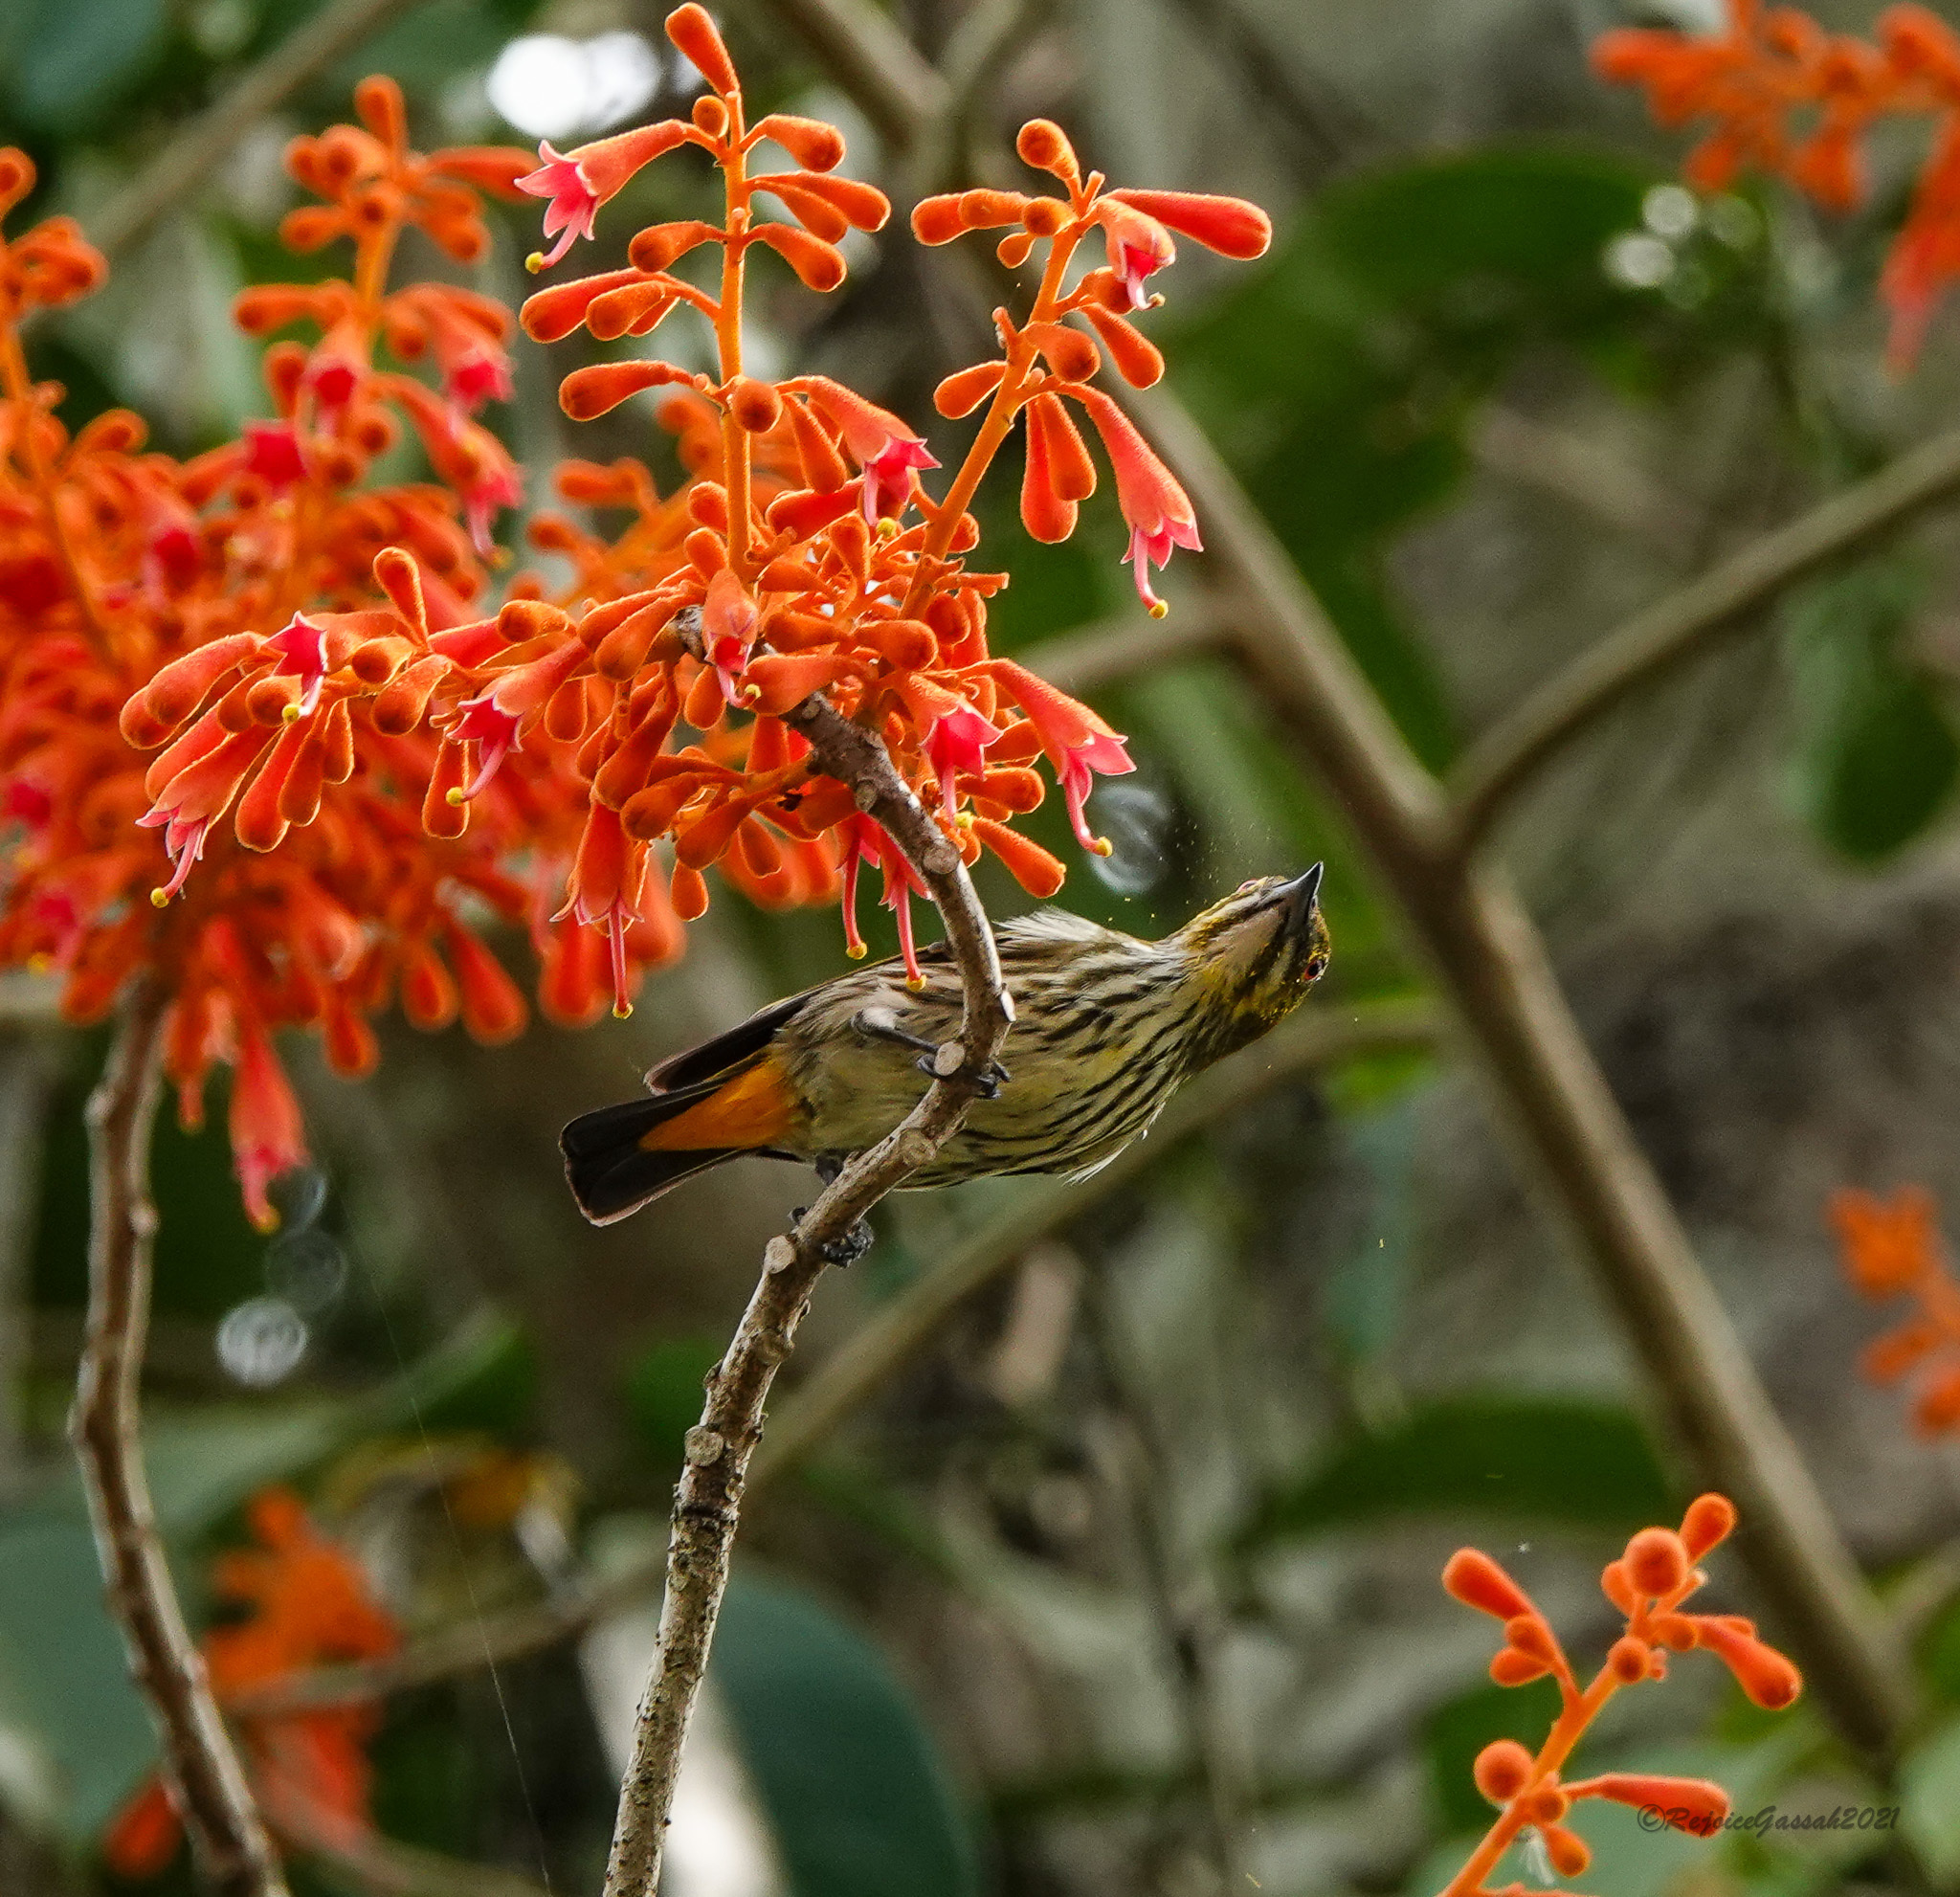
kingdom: Animalia
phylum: Chordata
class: Aves
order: Passeriformes
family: Dicaeidae
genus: Dicaeum
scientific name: Dicaeum chrysorrheum
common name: Yellow-vented flowerpecker
